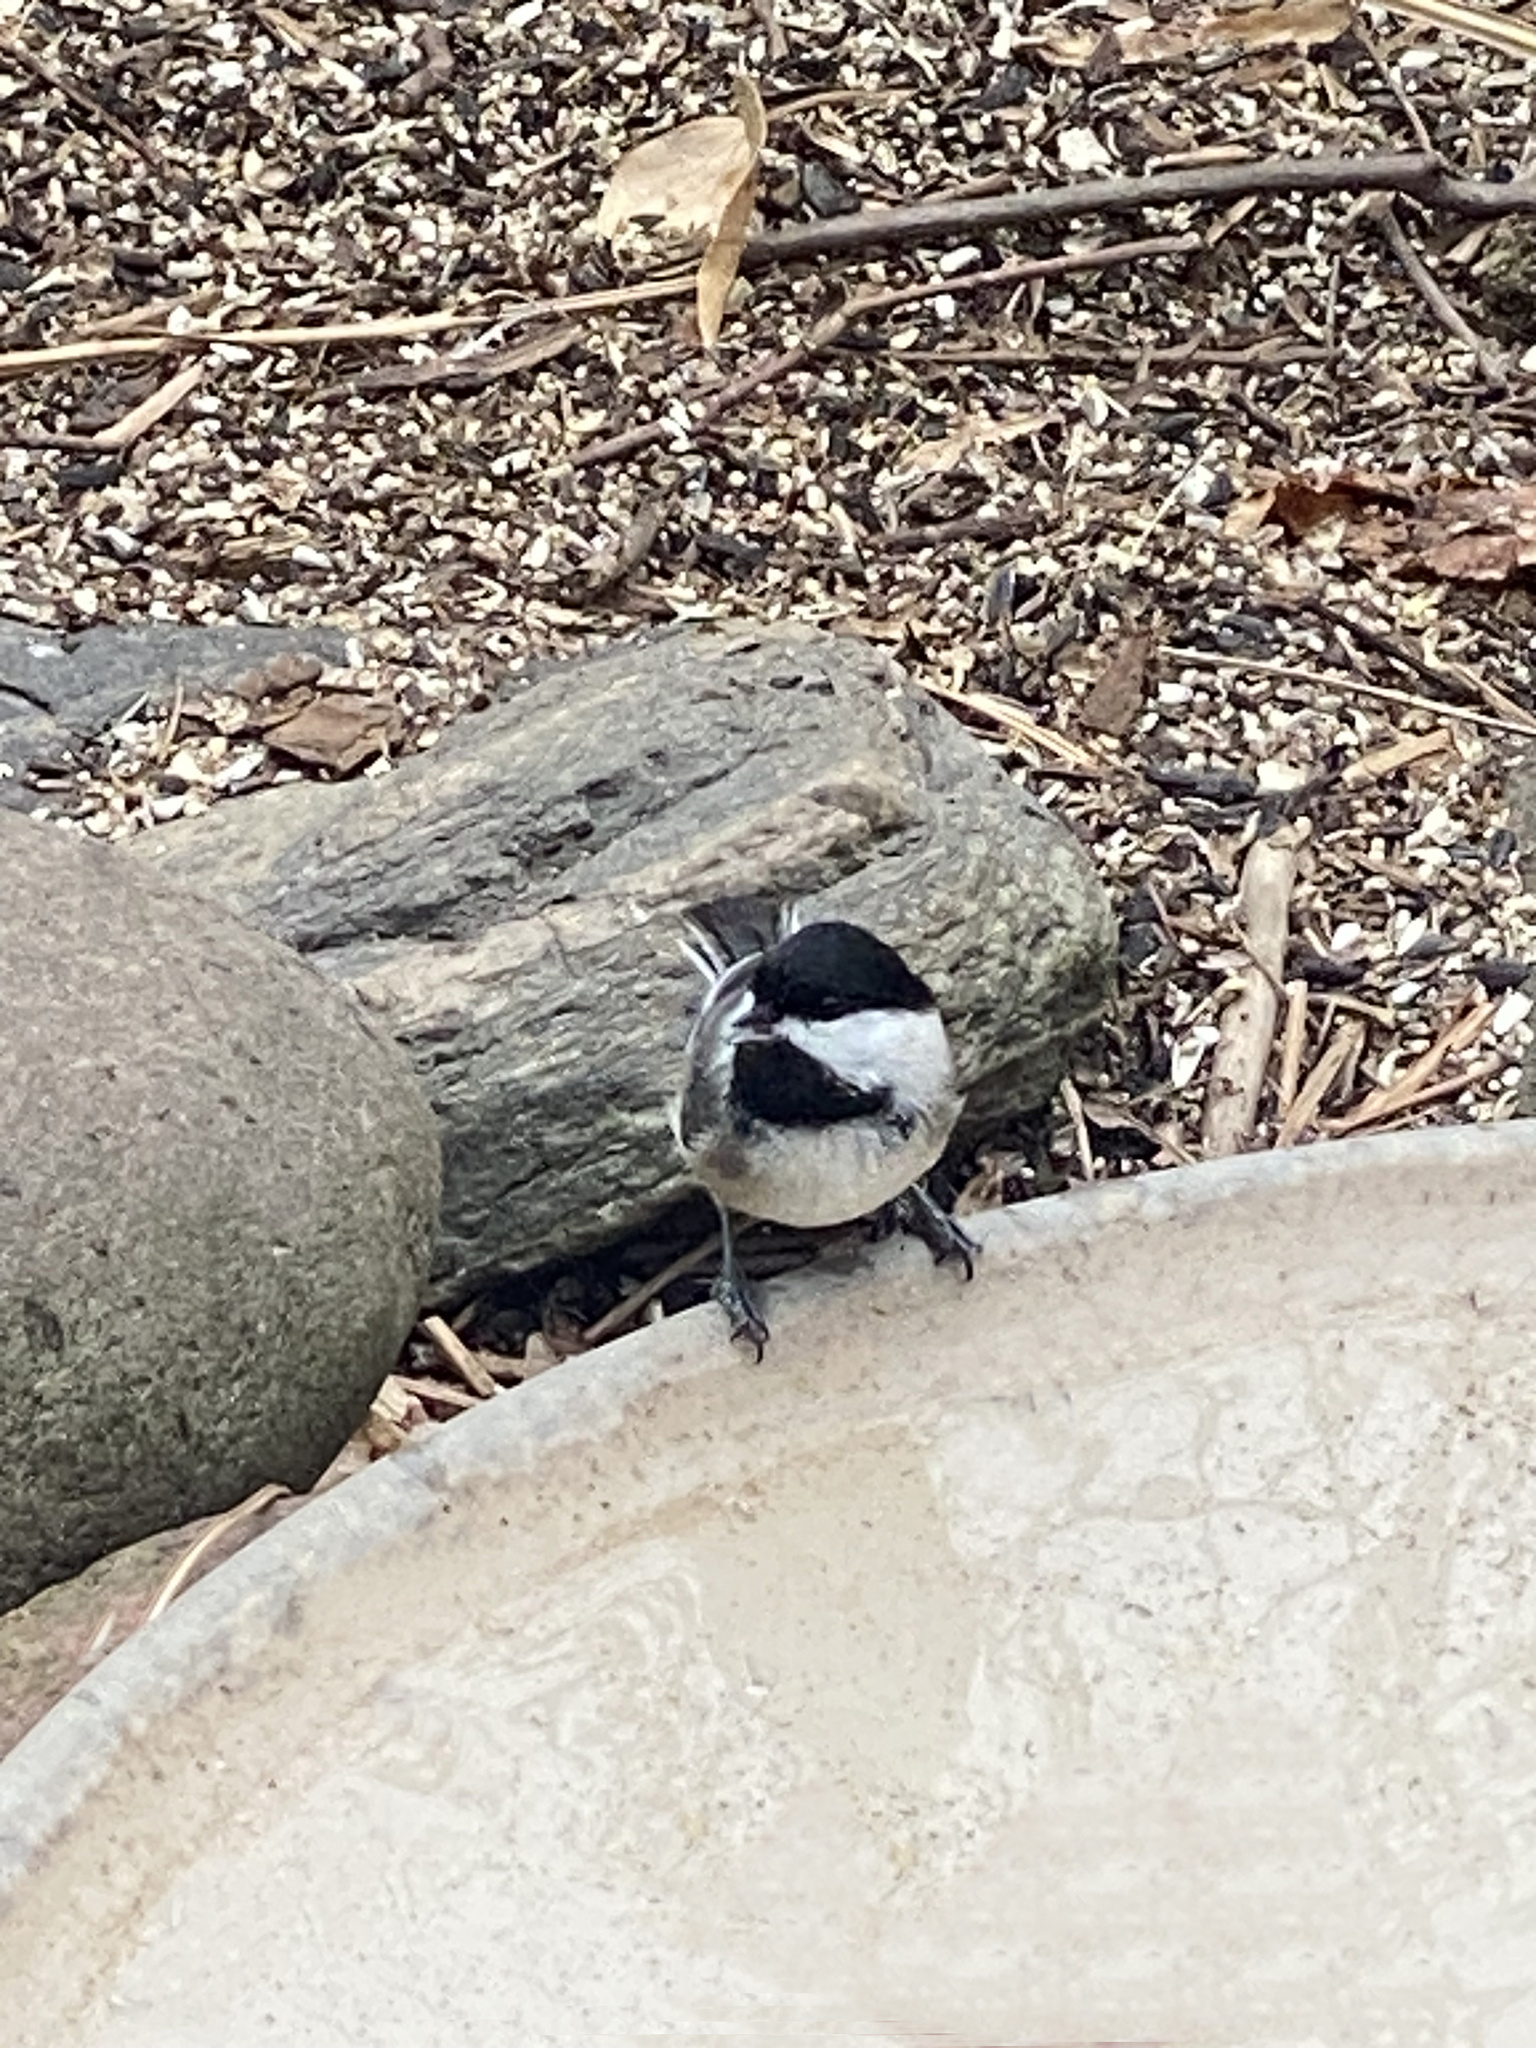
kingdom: Animalia
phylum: Chordata
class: Aves
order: Passeriformes
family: Paridae
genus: Poecile
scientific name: Poecile atricapillus
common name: Black-capped chickadee
